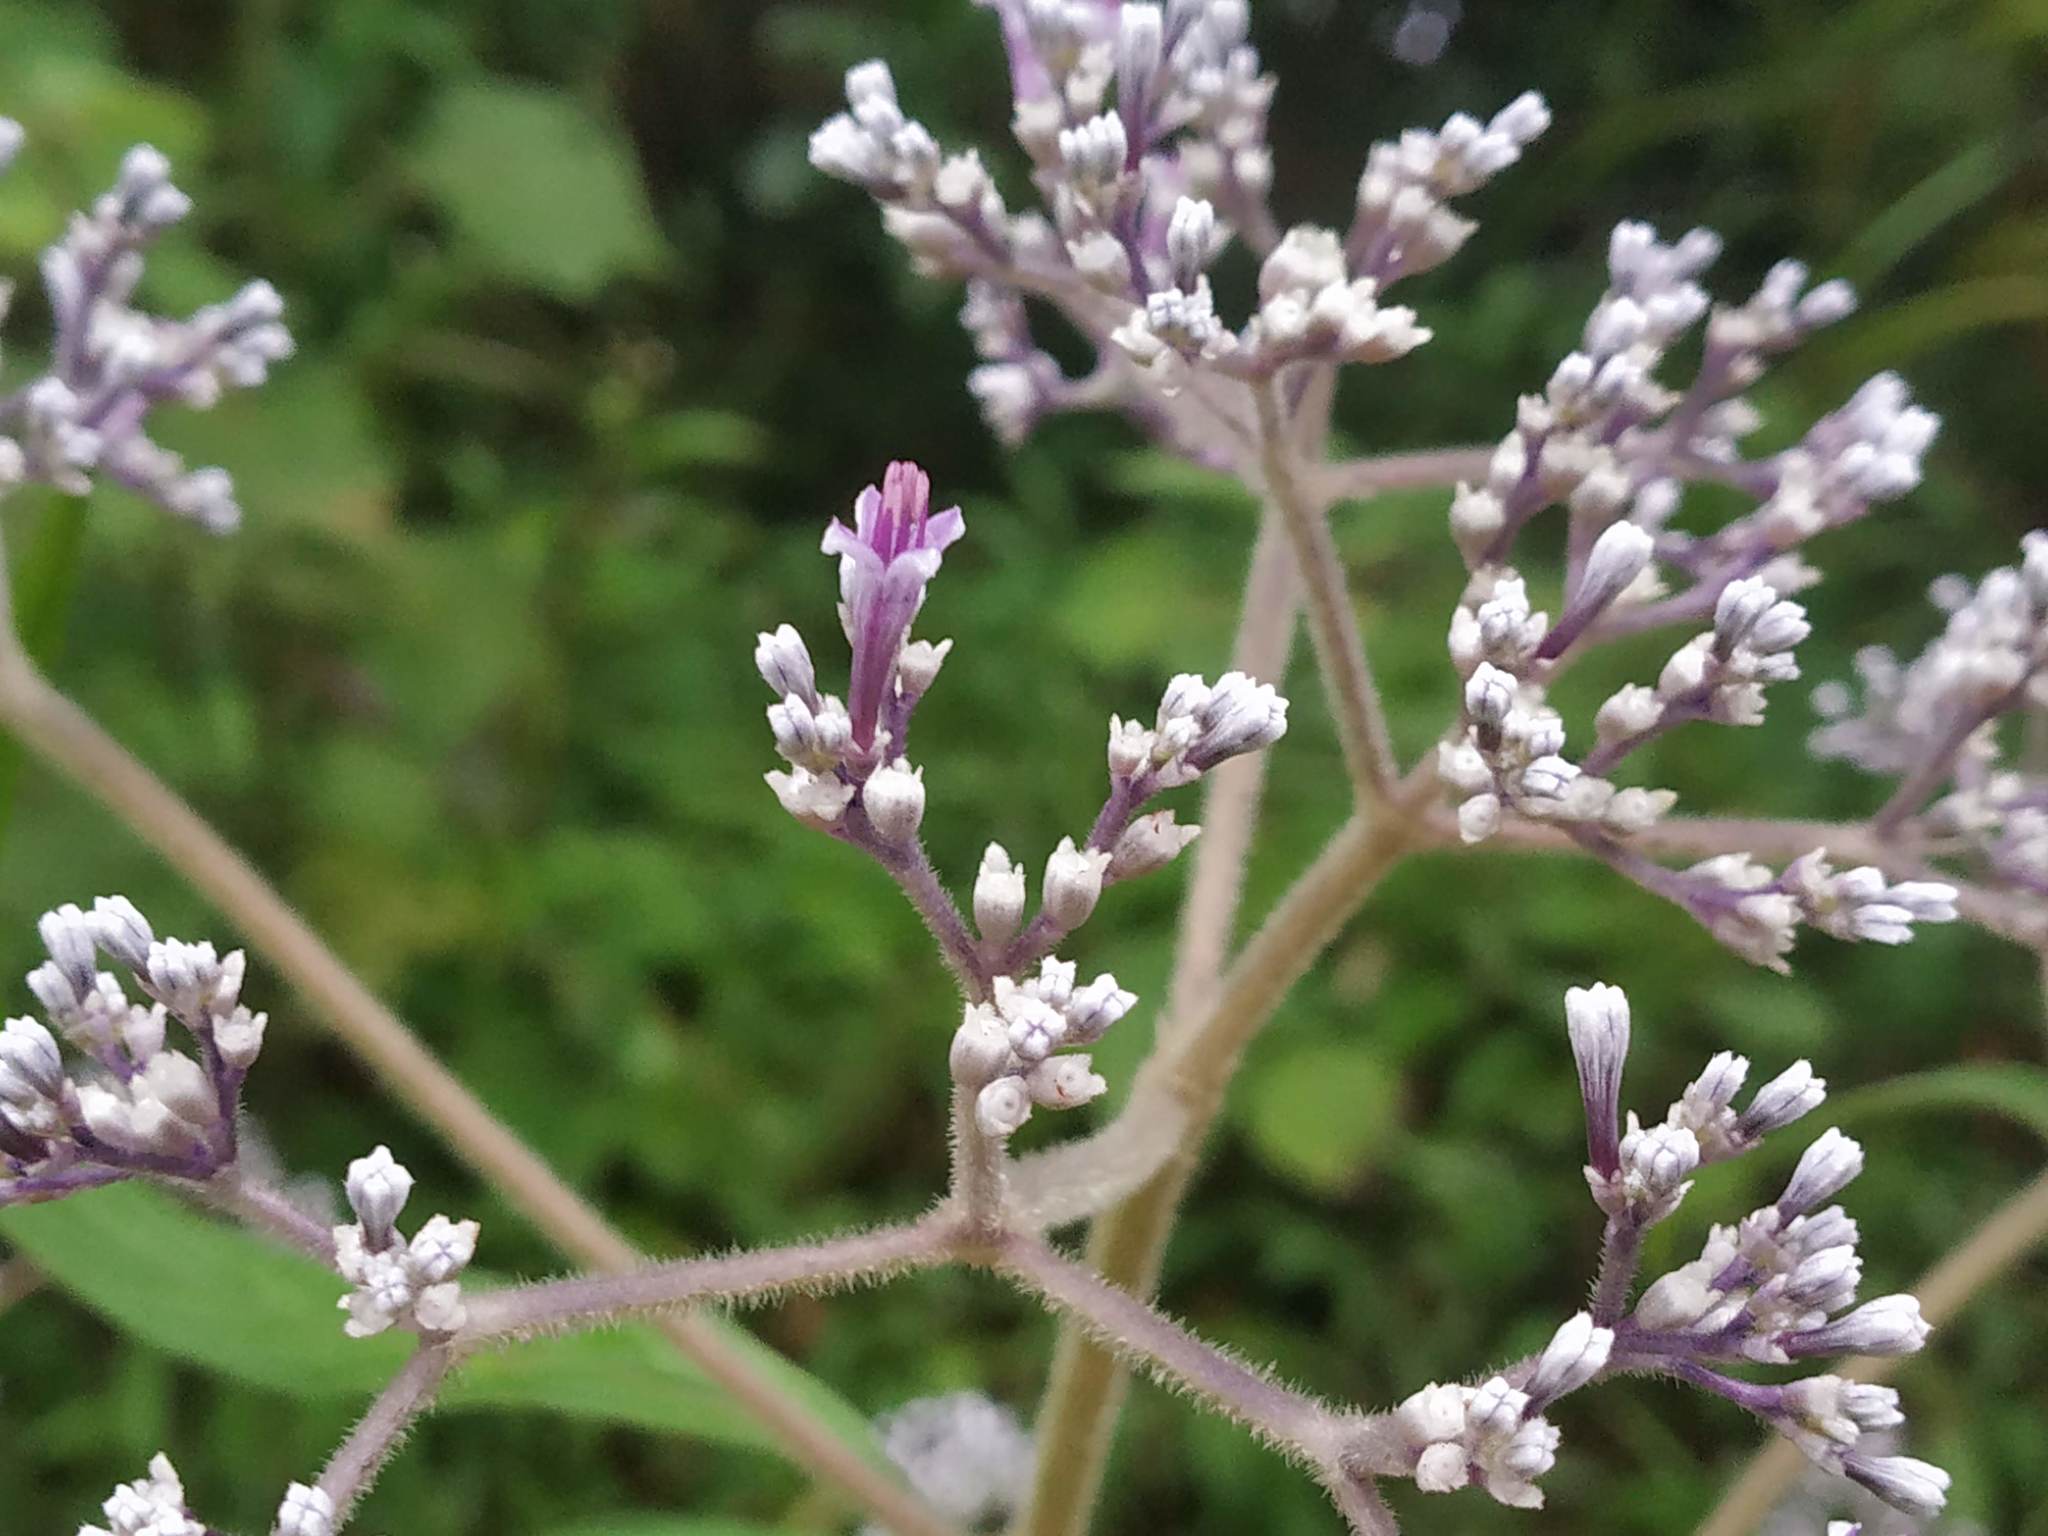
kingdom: Plantae
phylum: Tracheophyta
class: Magnoliopsida
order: Gentianales
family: Rubiaceae
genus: Knoxia
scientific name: Knoxia sumatrensis
